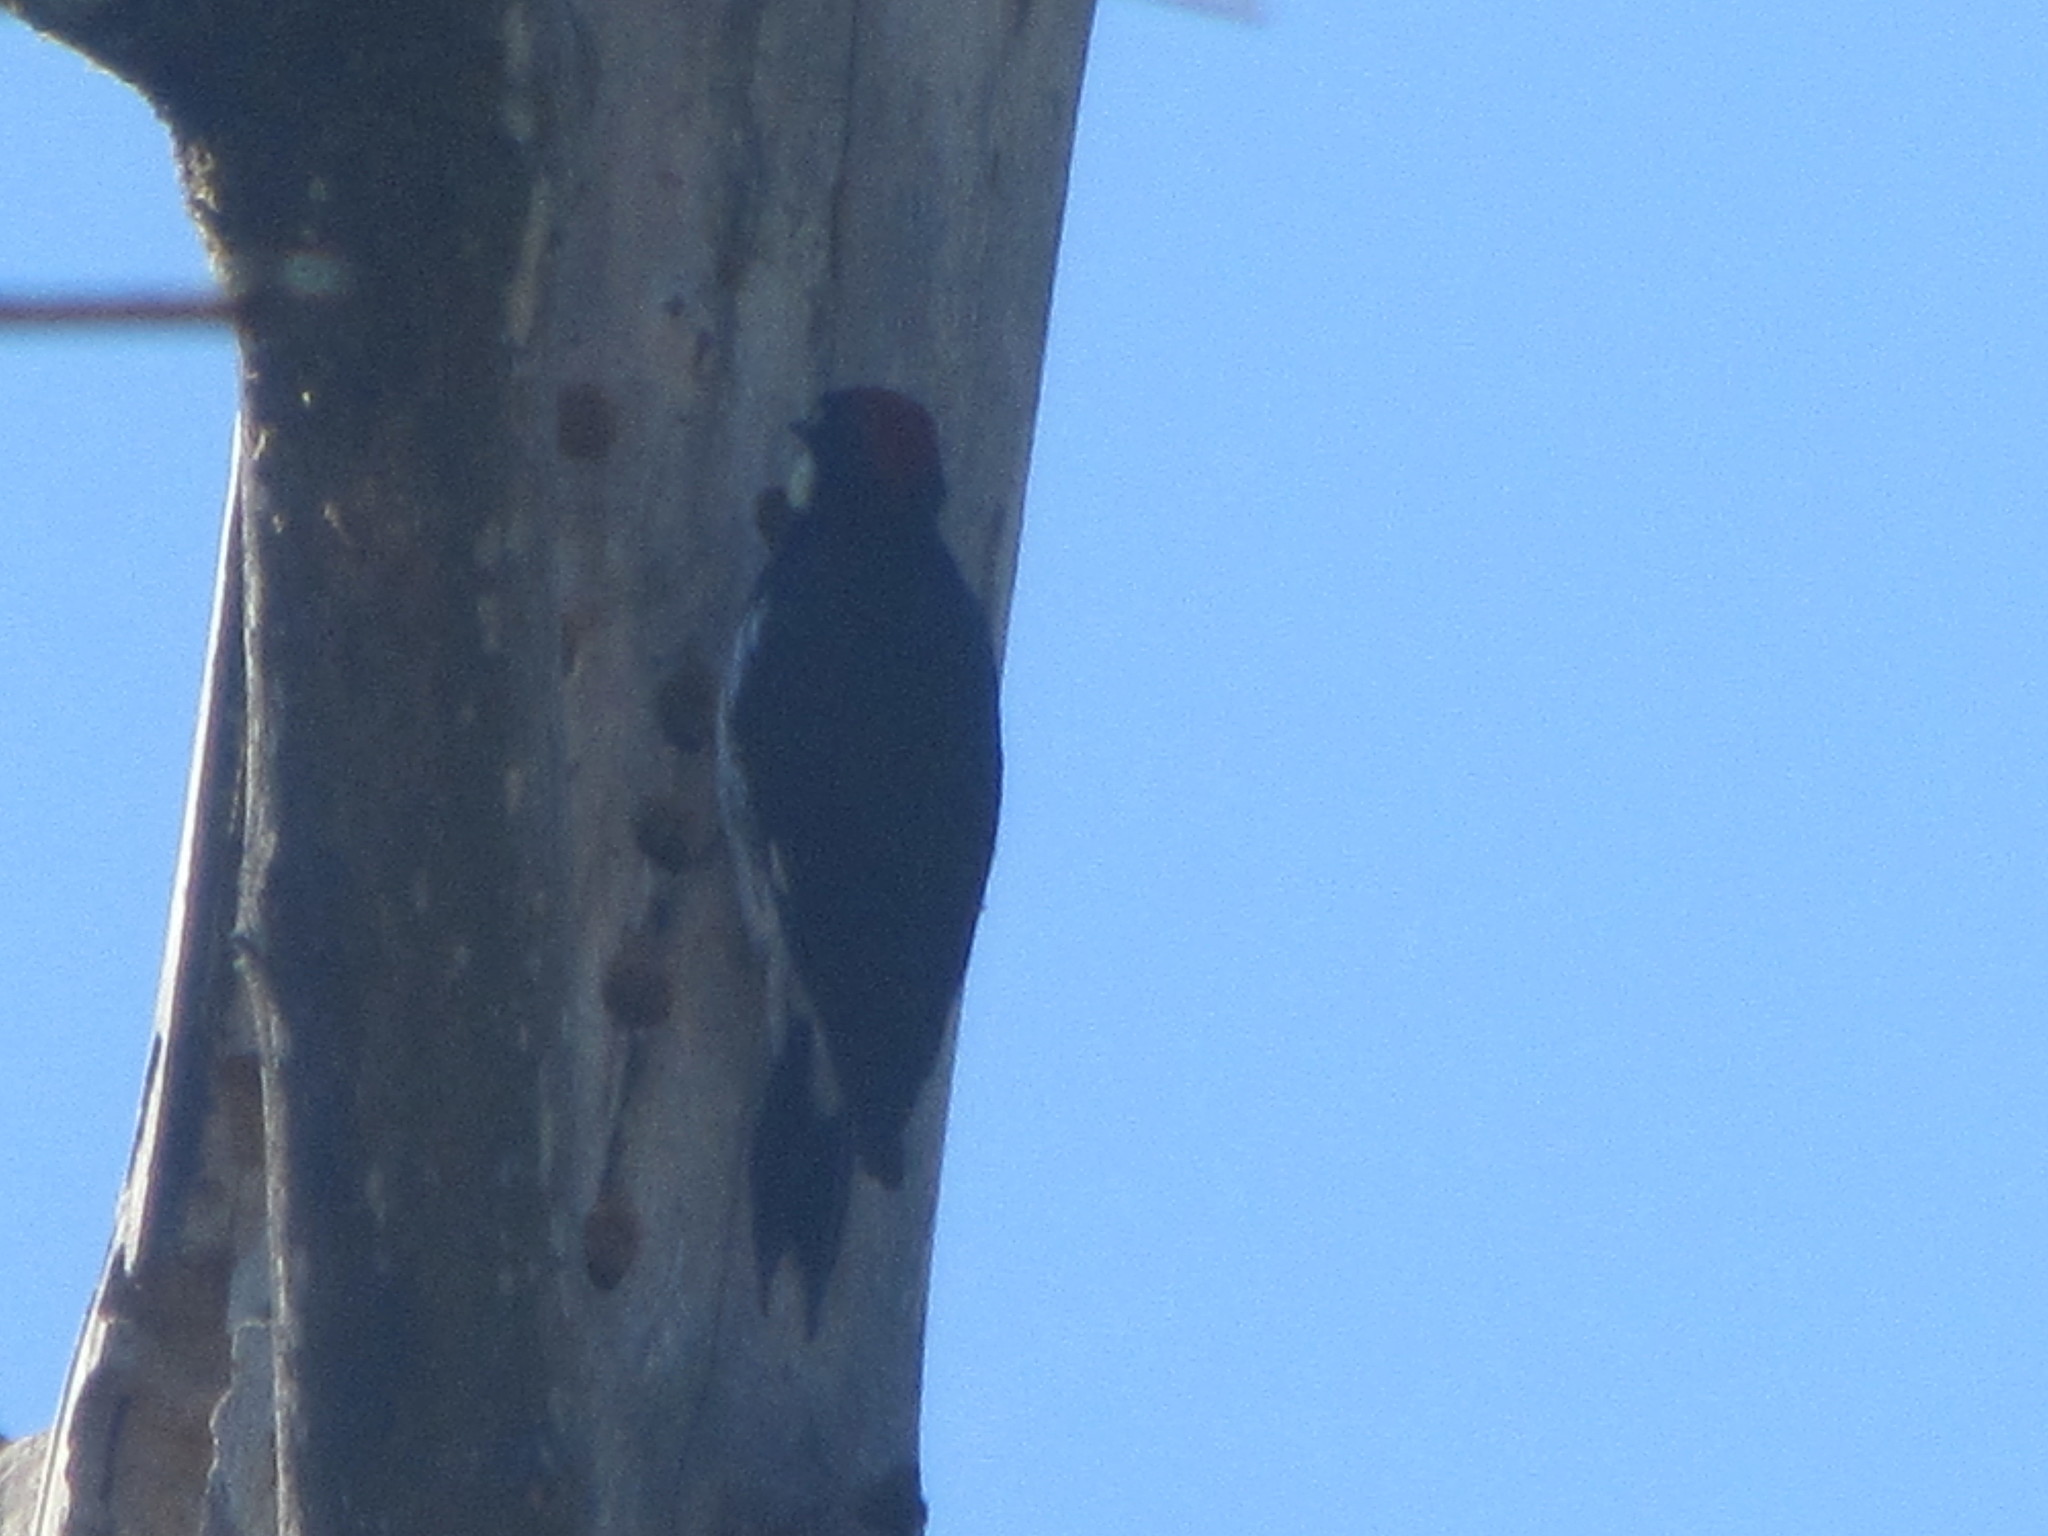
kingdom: Animalia
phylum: Chordata
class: Aves
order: Piciformes
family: Picidae
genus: Melanerpes
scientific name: Melanerpes formicivorus
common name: Acorn woodpecker
